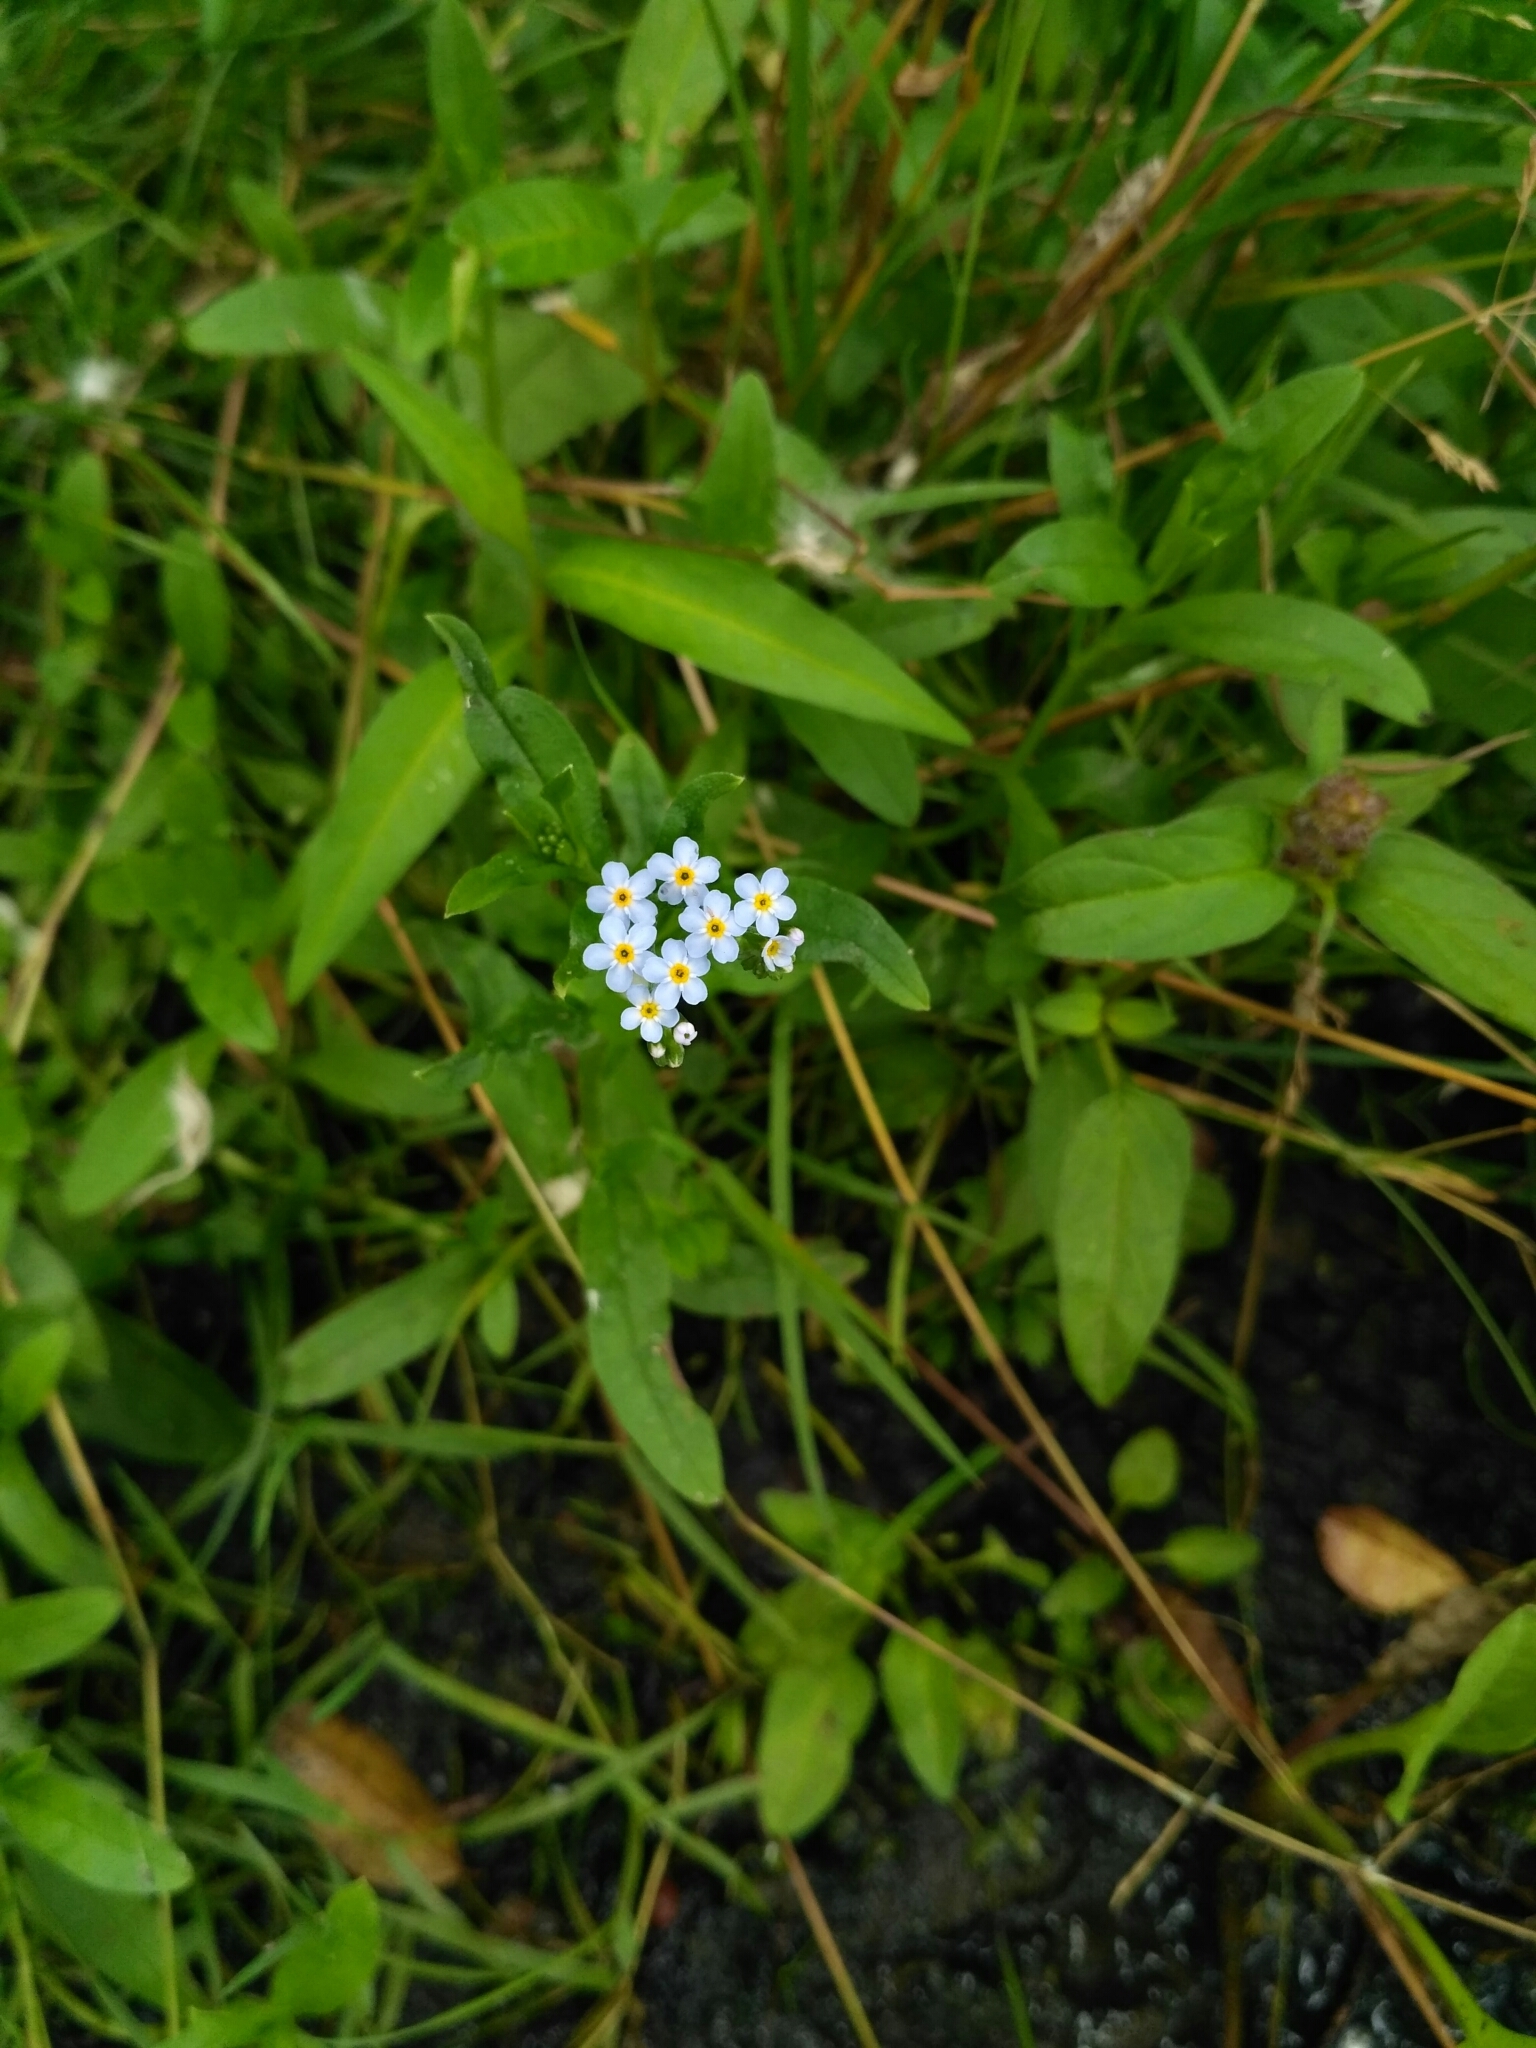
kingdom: Plantae
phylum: Tracheophyta
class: Magnoliopsida
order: Boraginales
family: Boraginaceae
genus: Myosotis
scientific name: Myosotis scorpioides
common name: Water forget-me-not
